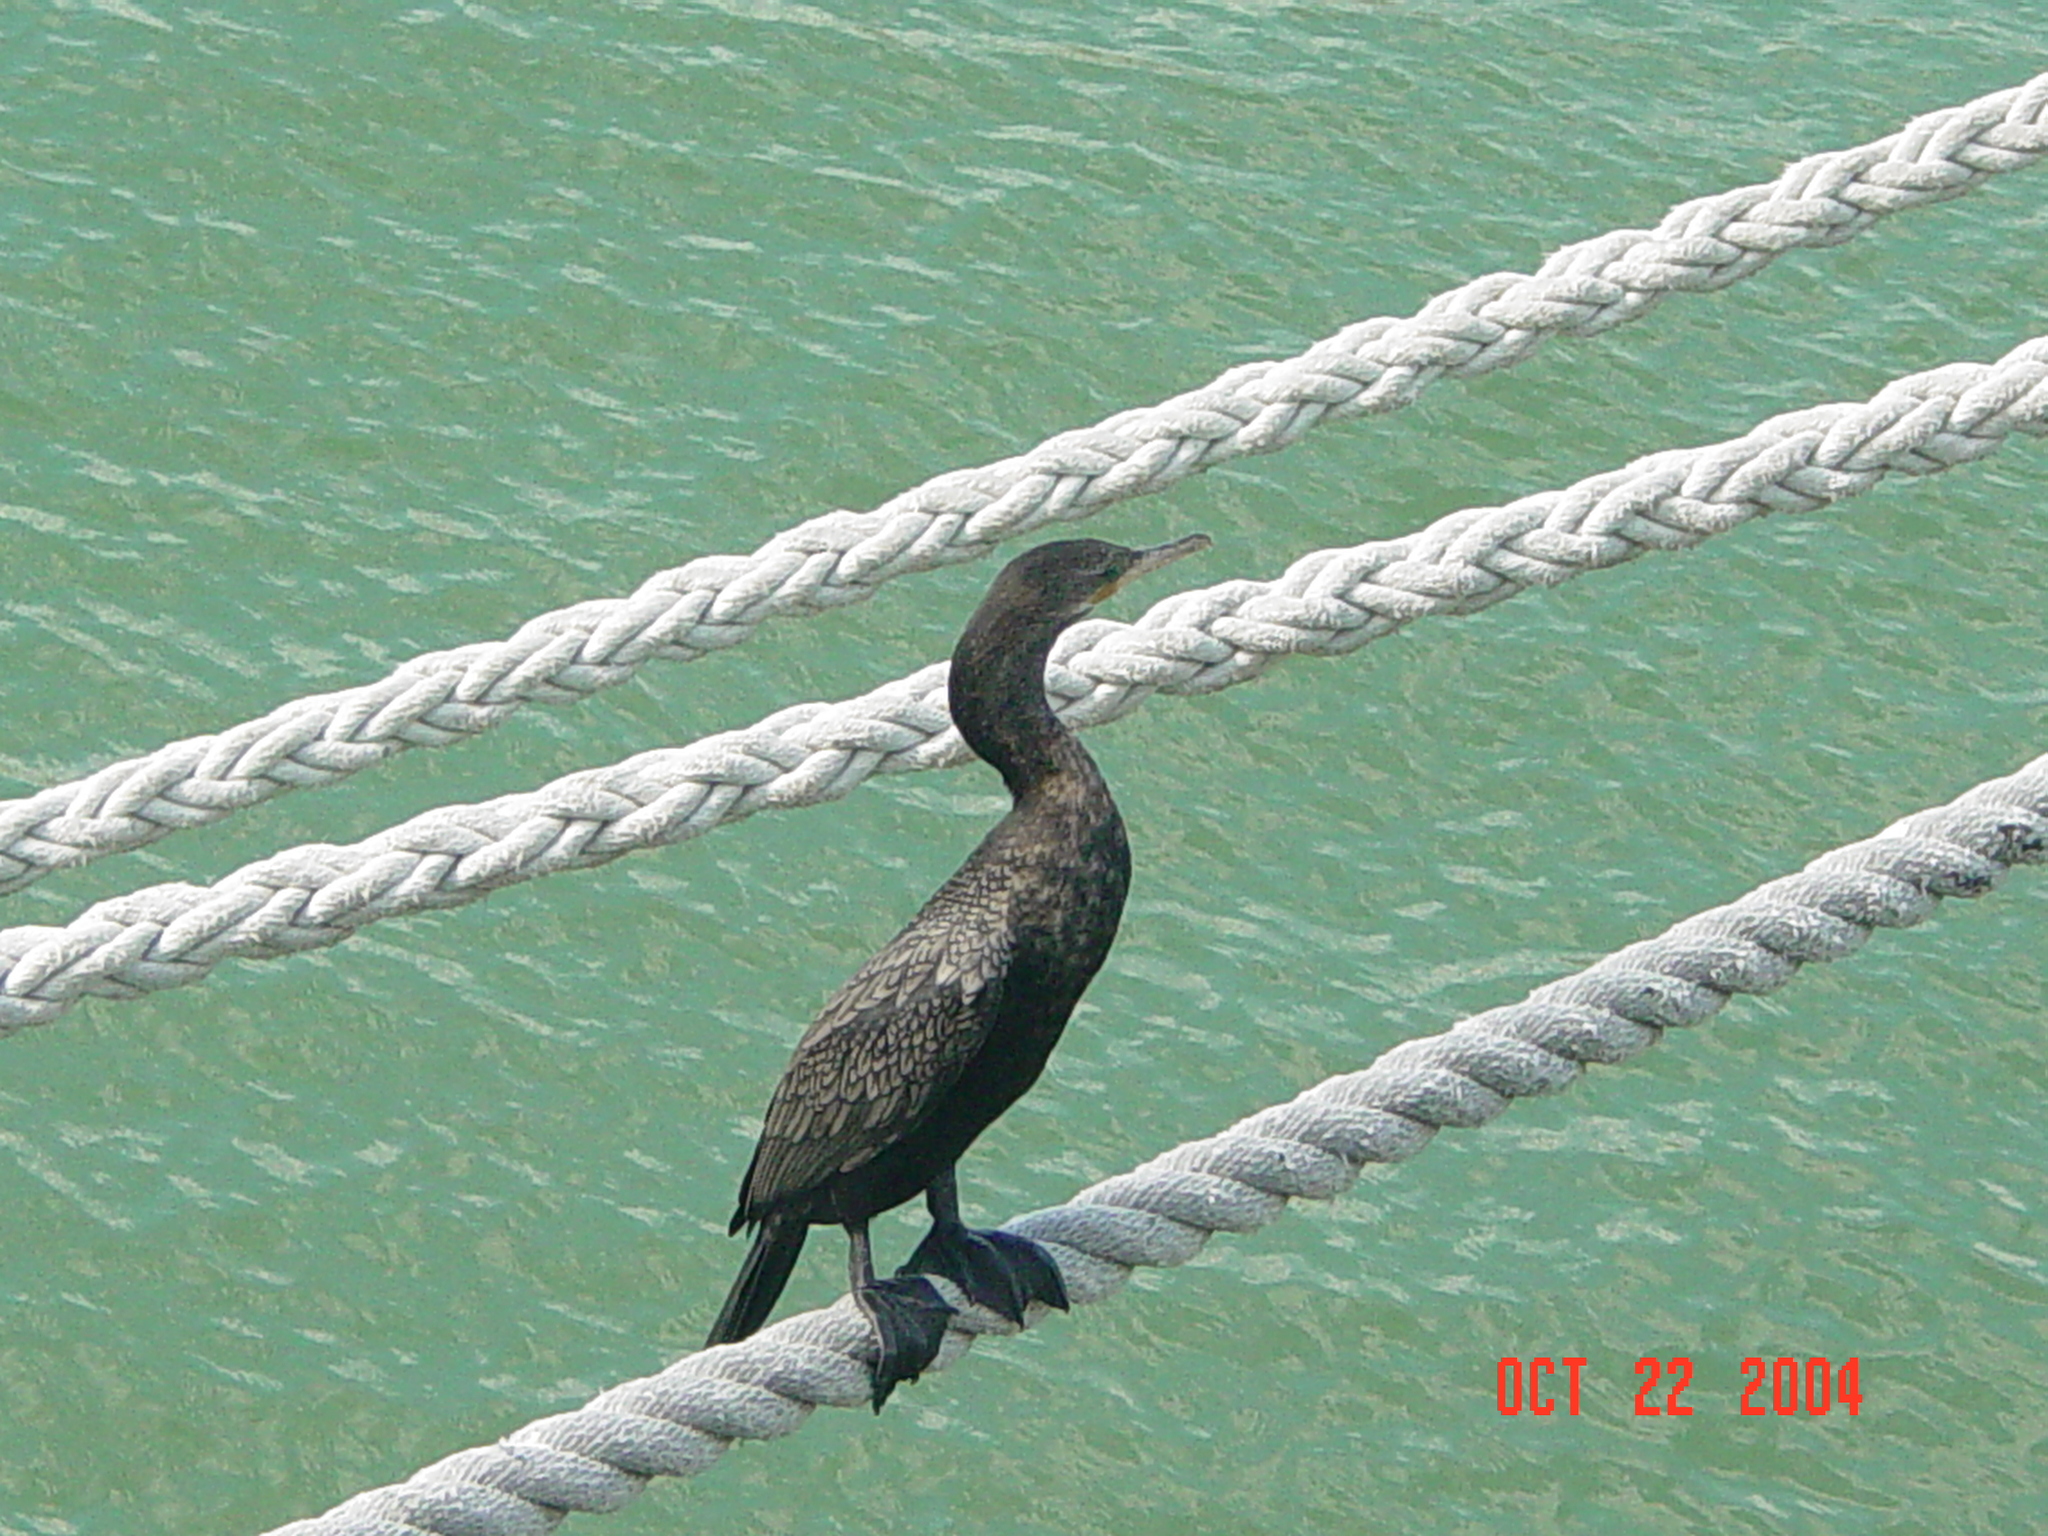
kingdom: Animalia
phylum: Chordata
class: Aves
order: Suliformes
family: Phalacrocoracidae
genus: Phalacrocorax
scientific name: Phalacrocorax brasilianus
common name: Neotropic cormorant
